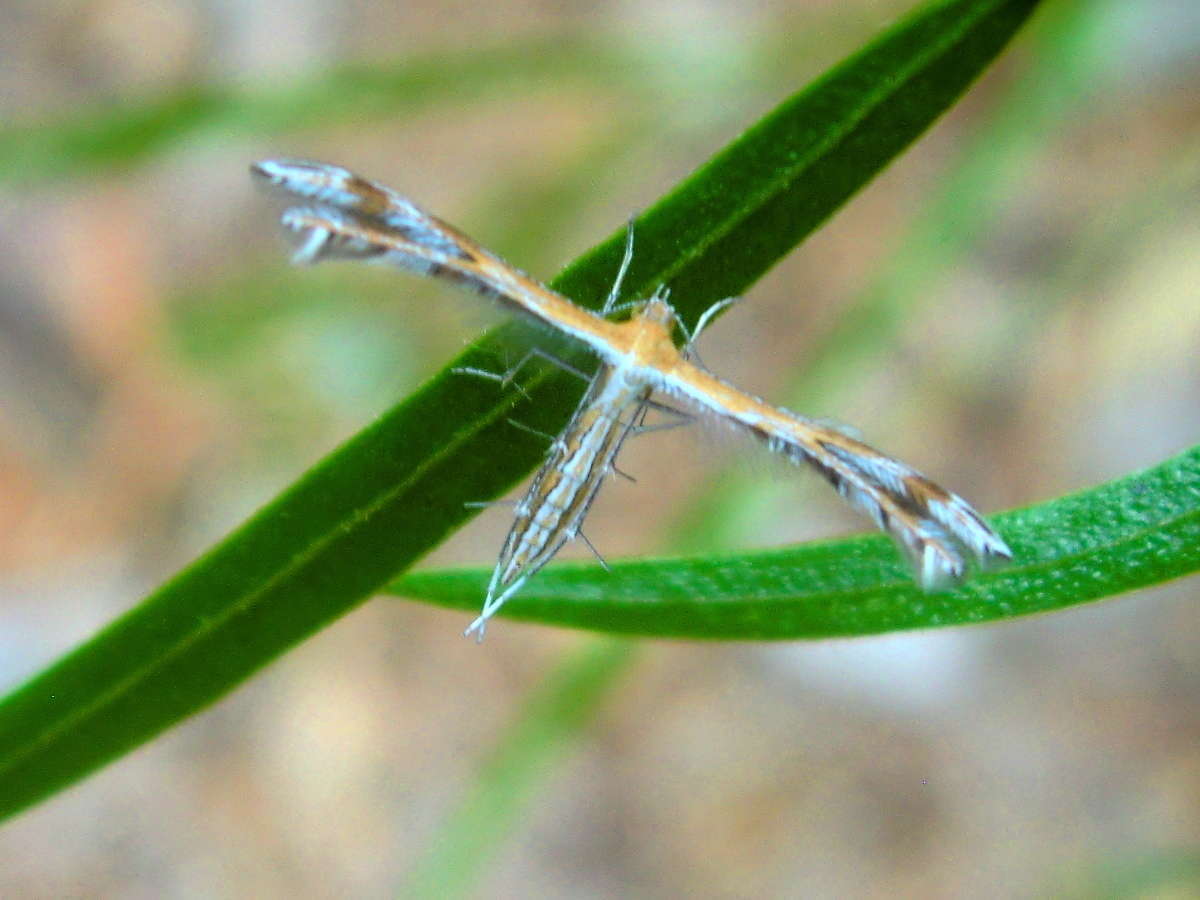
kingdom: Animalia
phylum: Arthropoda
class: Insecta
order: Lepidoptera
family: Pterophoridae
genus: Stangeia
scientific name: Stangeia xerodes
